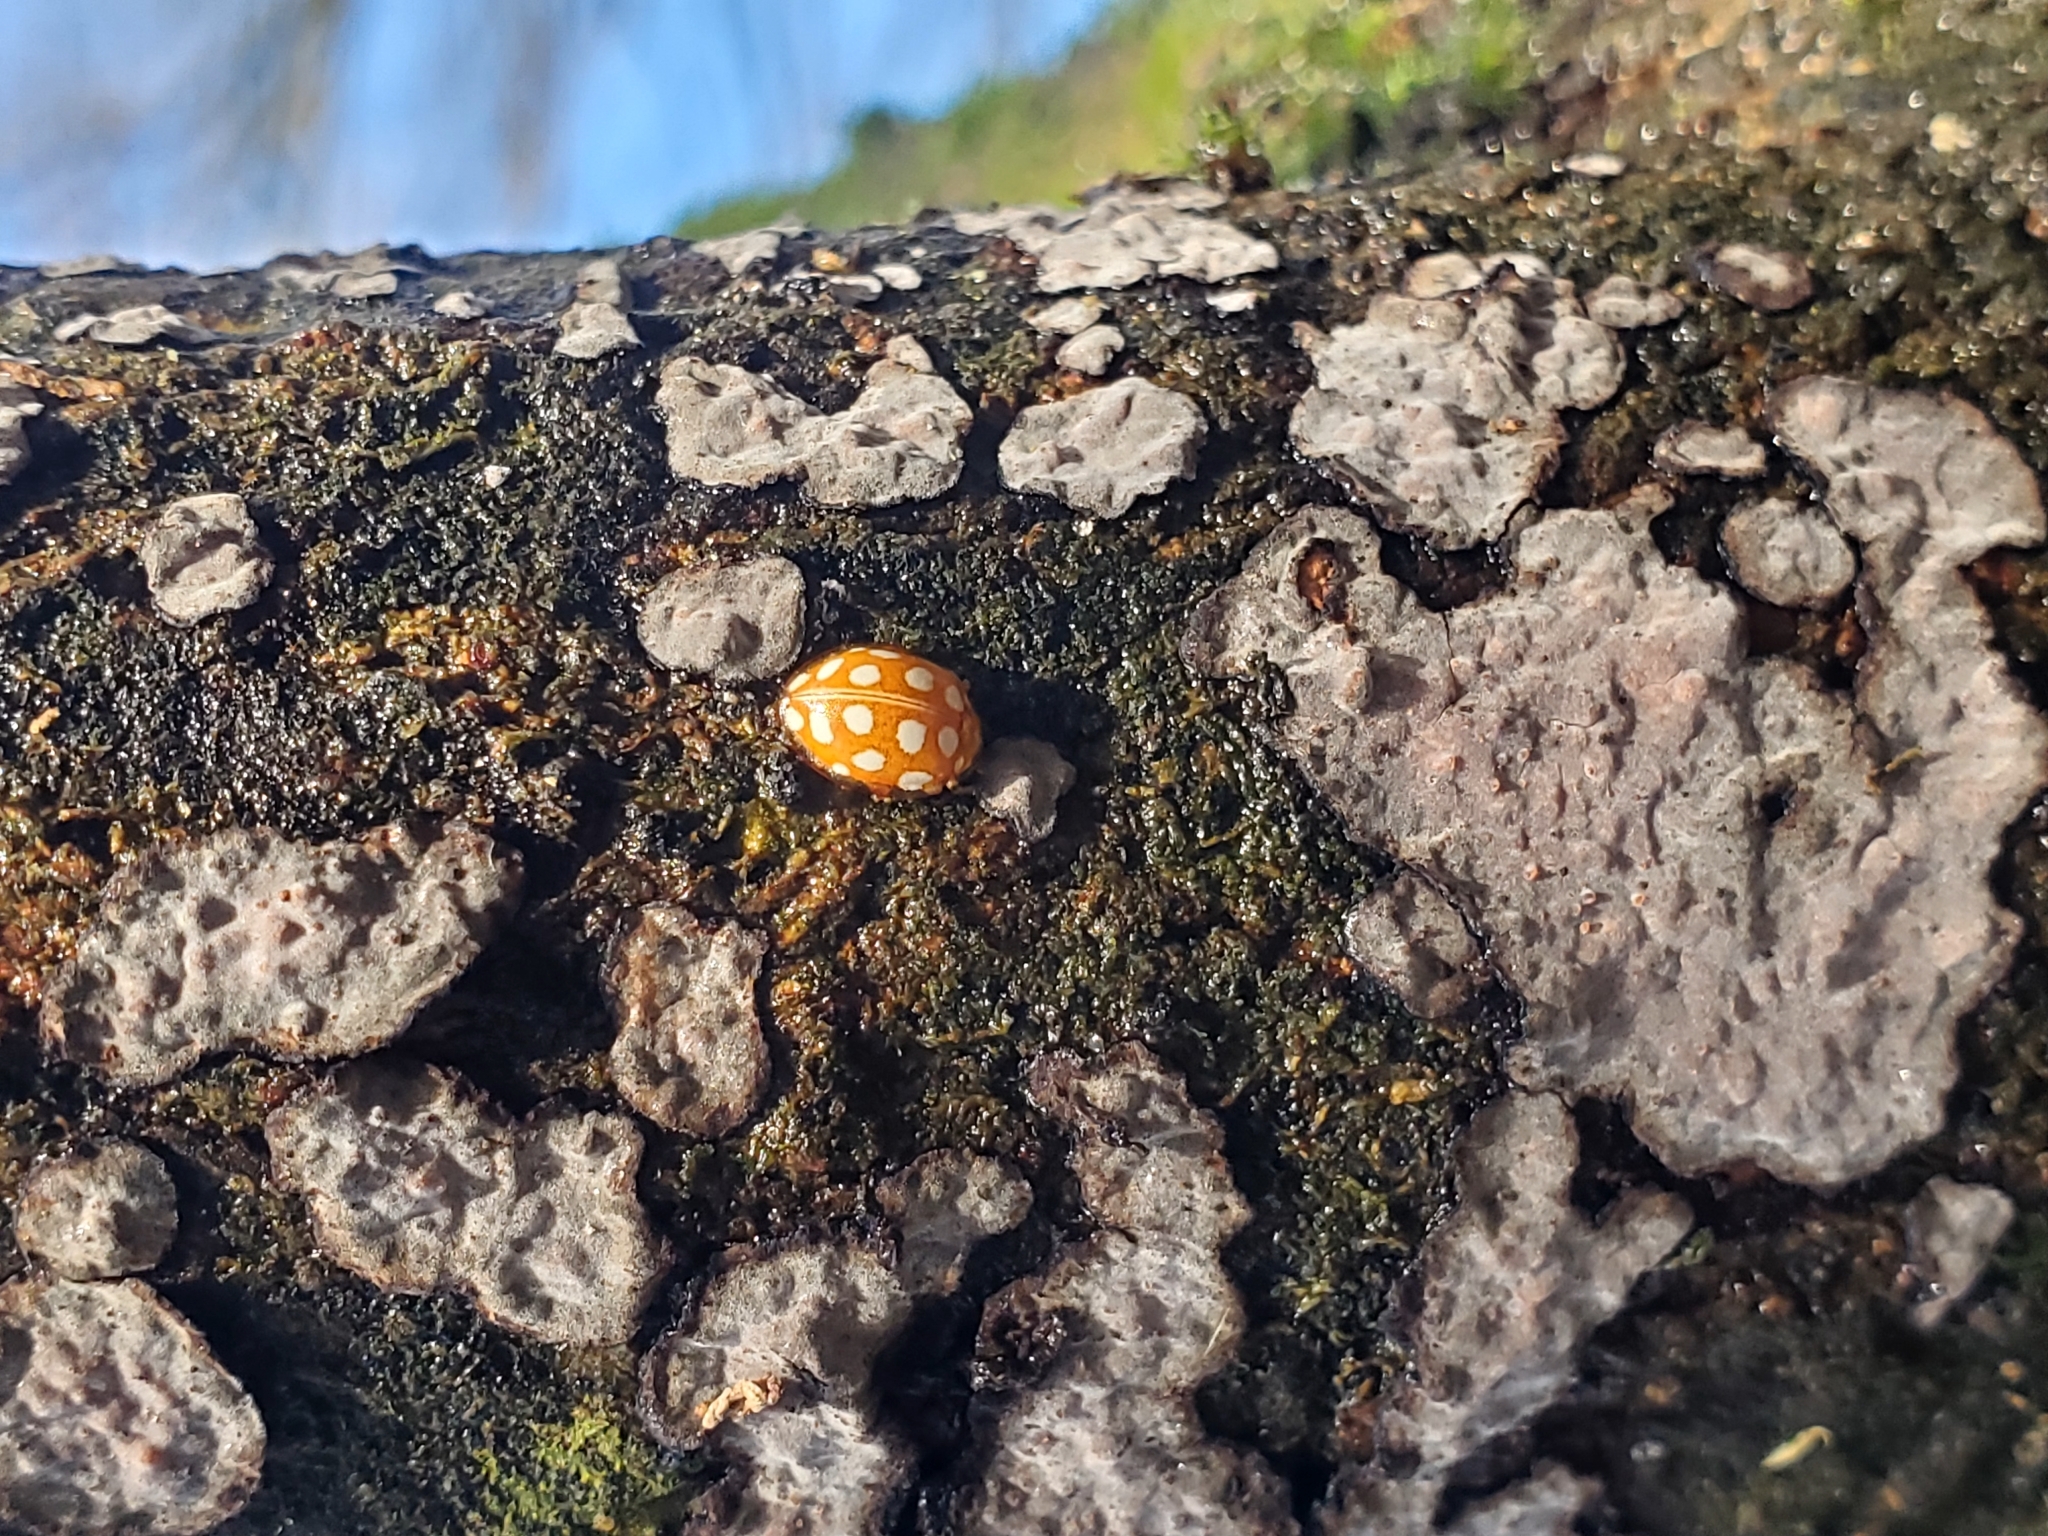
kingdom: Animalia
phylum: Arthropoda
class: Insecta
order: Coleoptera
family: Coccinellidae
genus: Halyzia
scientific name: Halyzia sedecimguttata
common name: Orange ladybird
